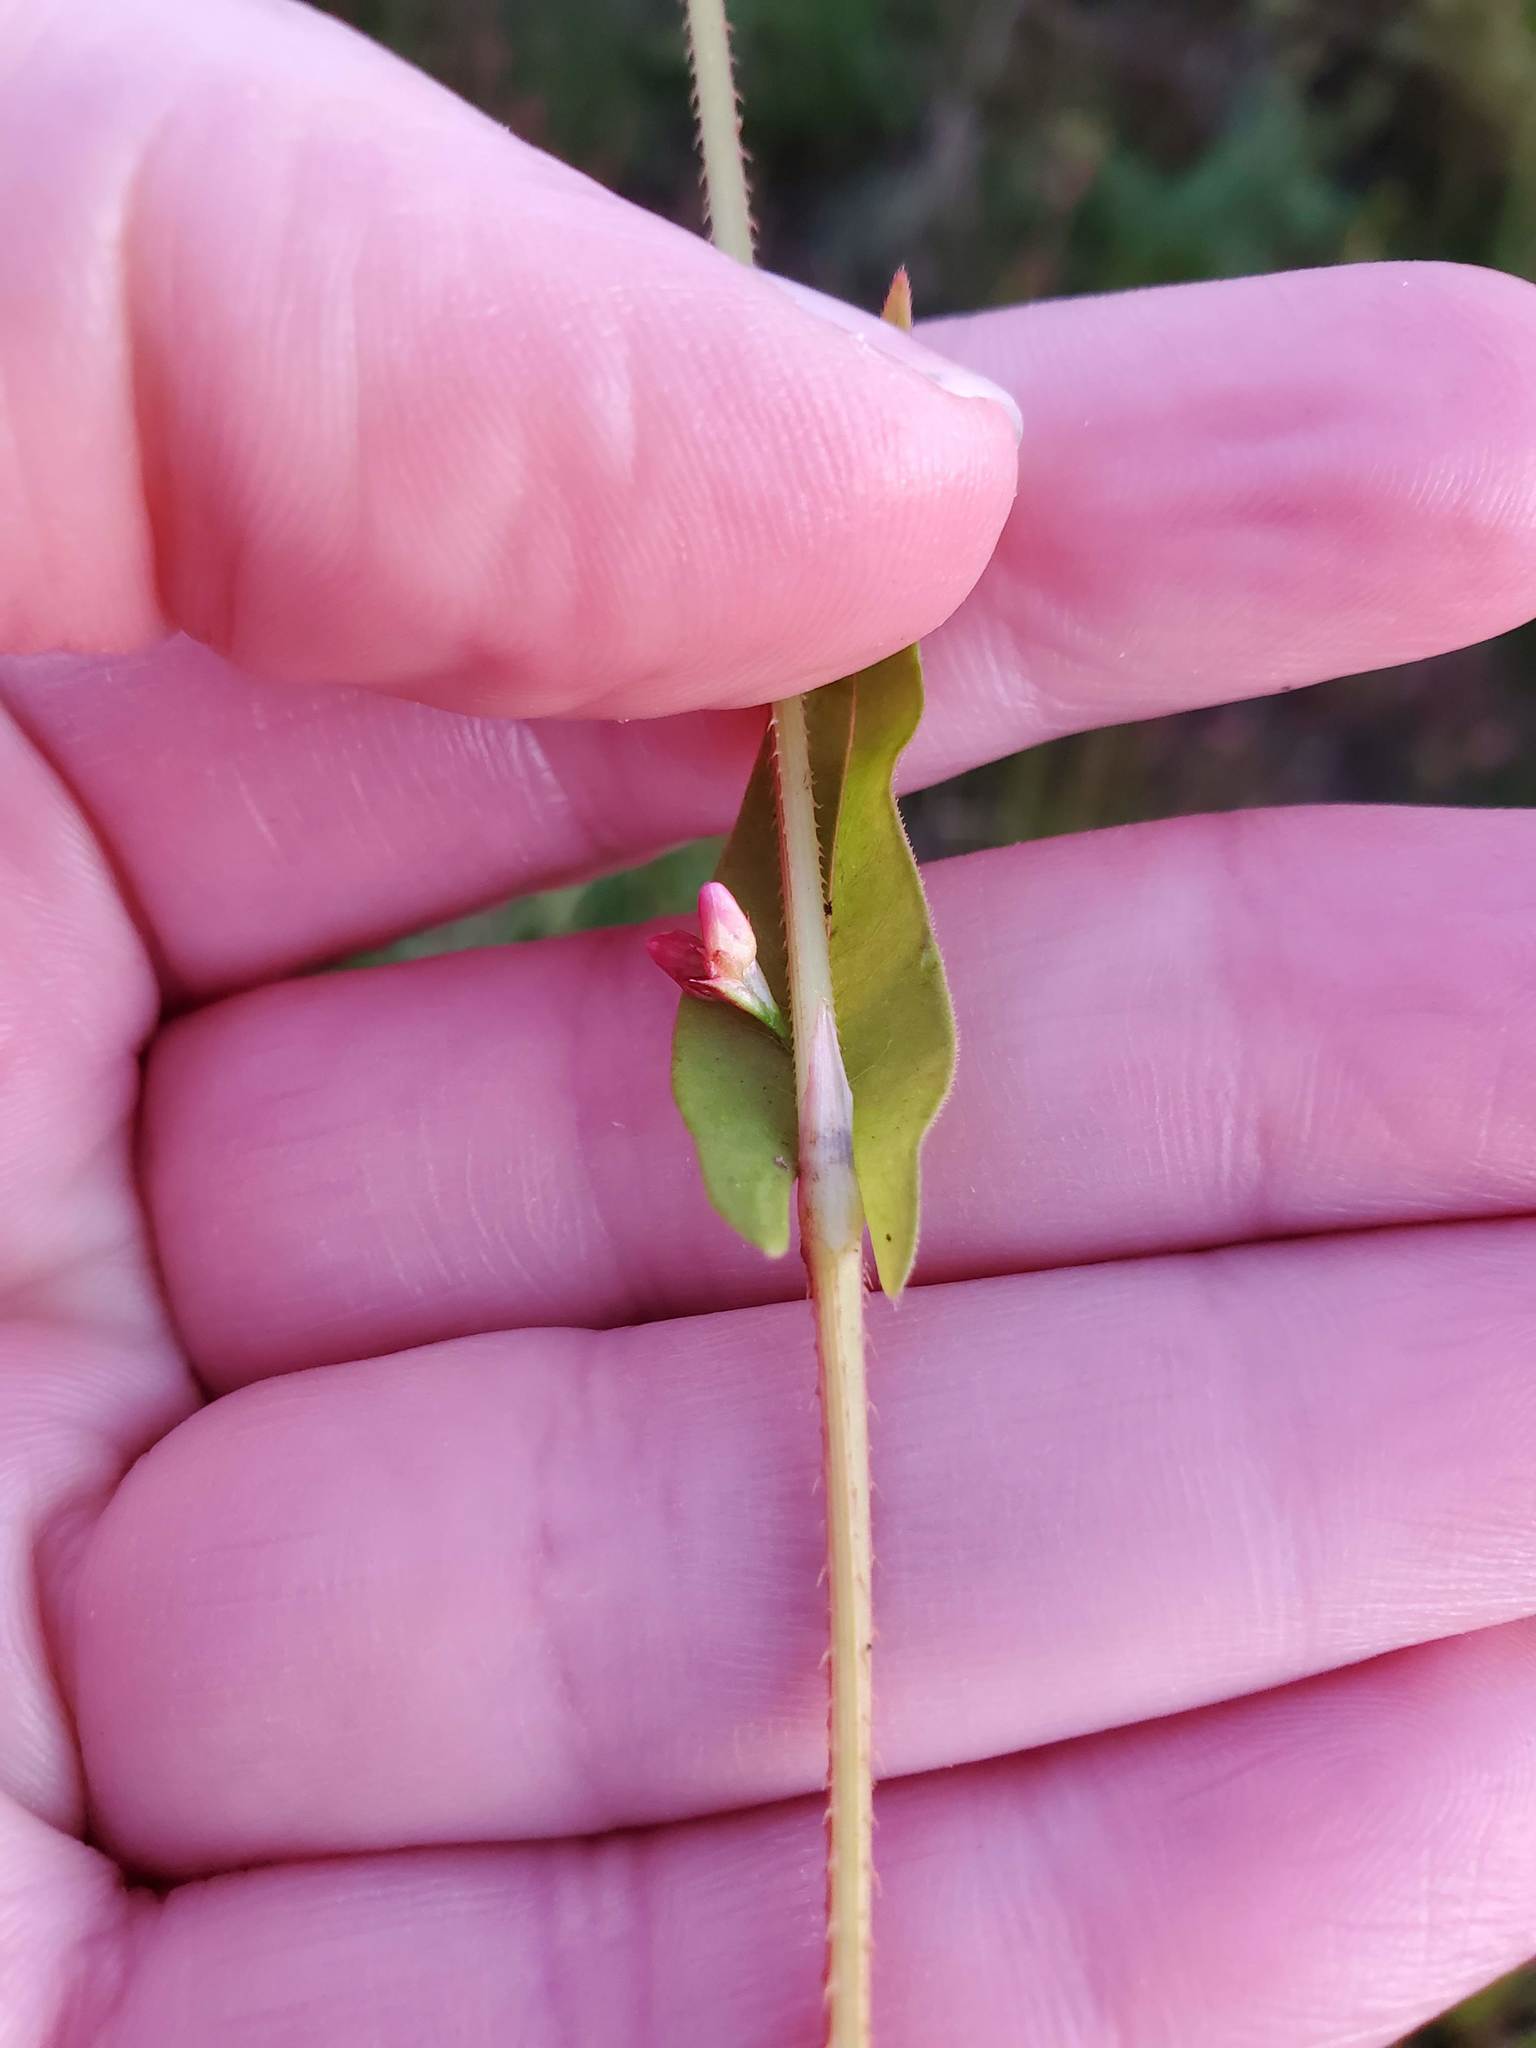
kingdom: Plantae
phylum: Tracheophyta
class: Magnoliopsida
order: Caryophyllales
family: Polygonaceae
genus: Persicaria
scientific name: Persicaria sagittata
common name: American tearthumb
